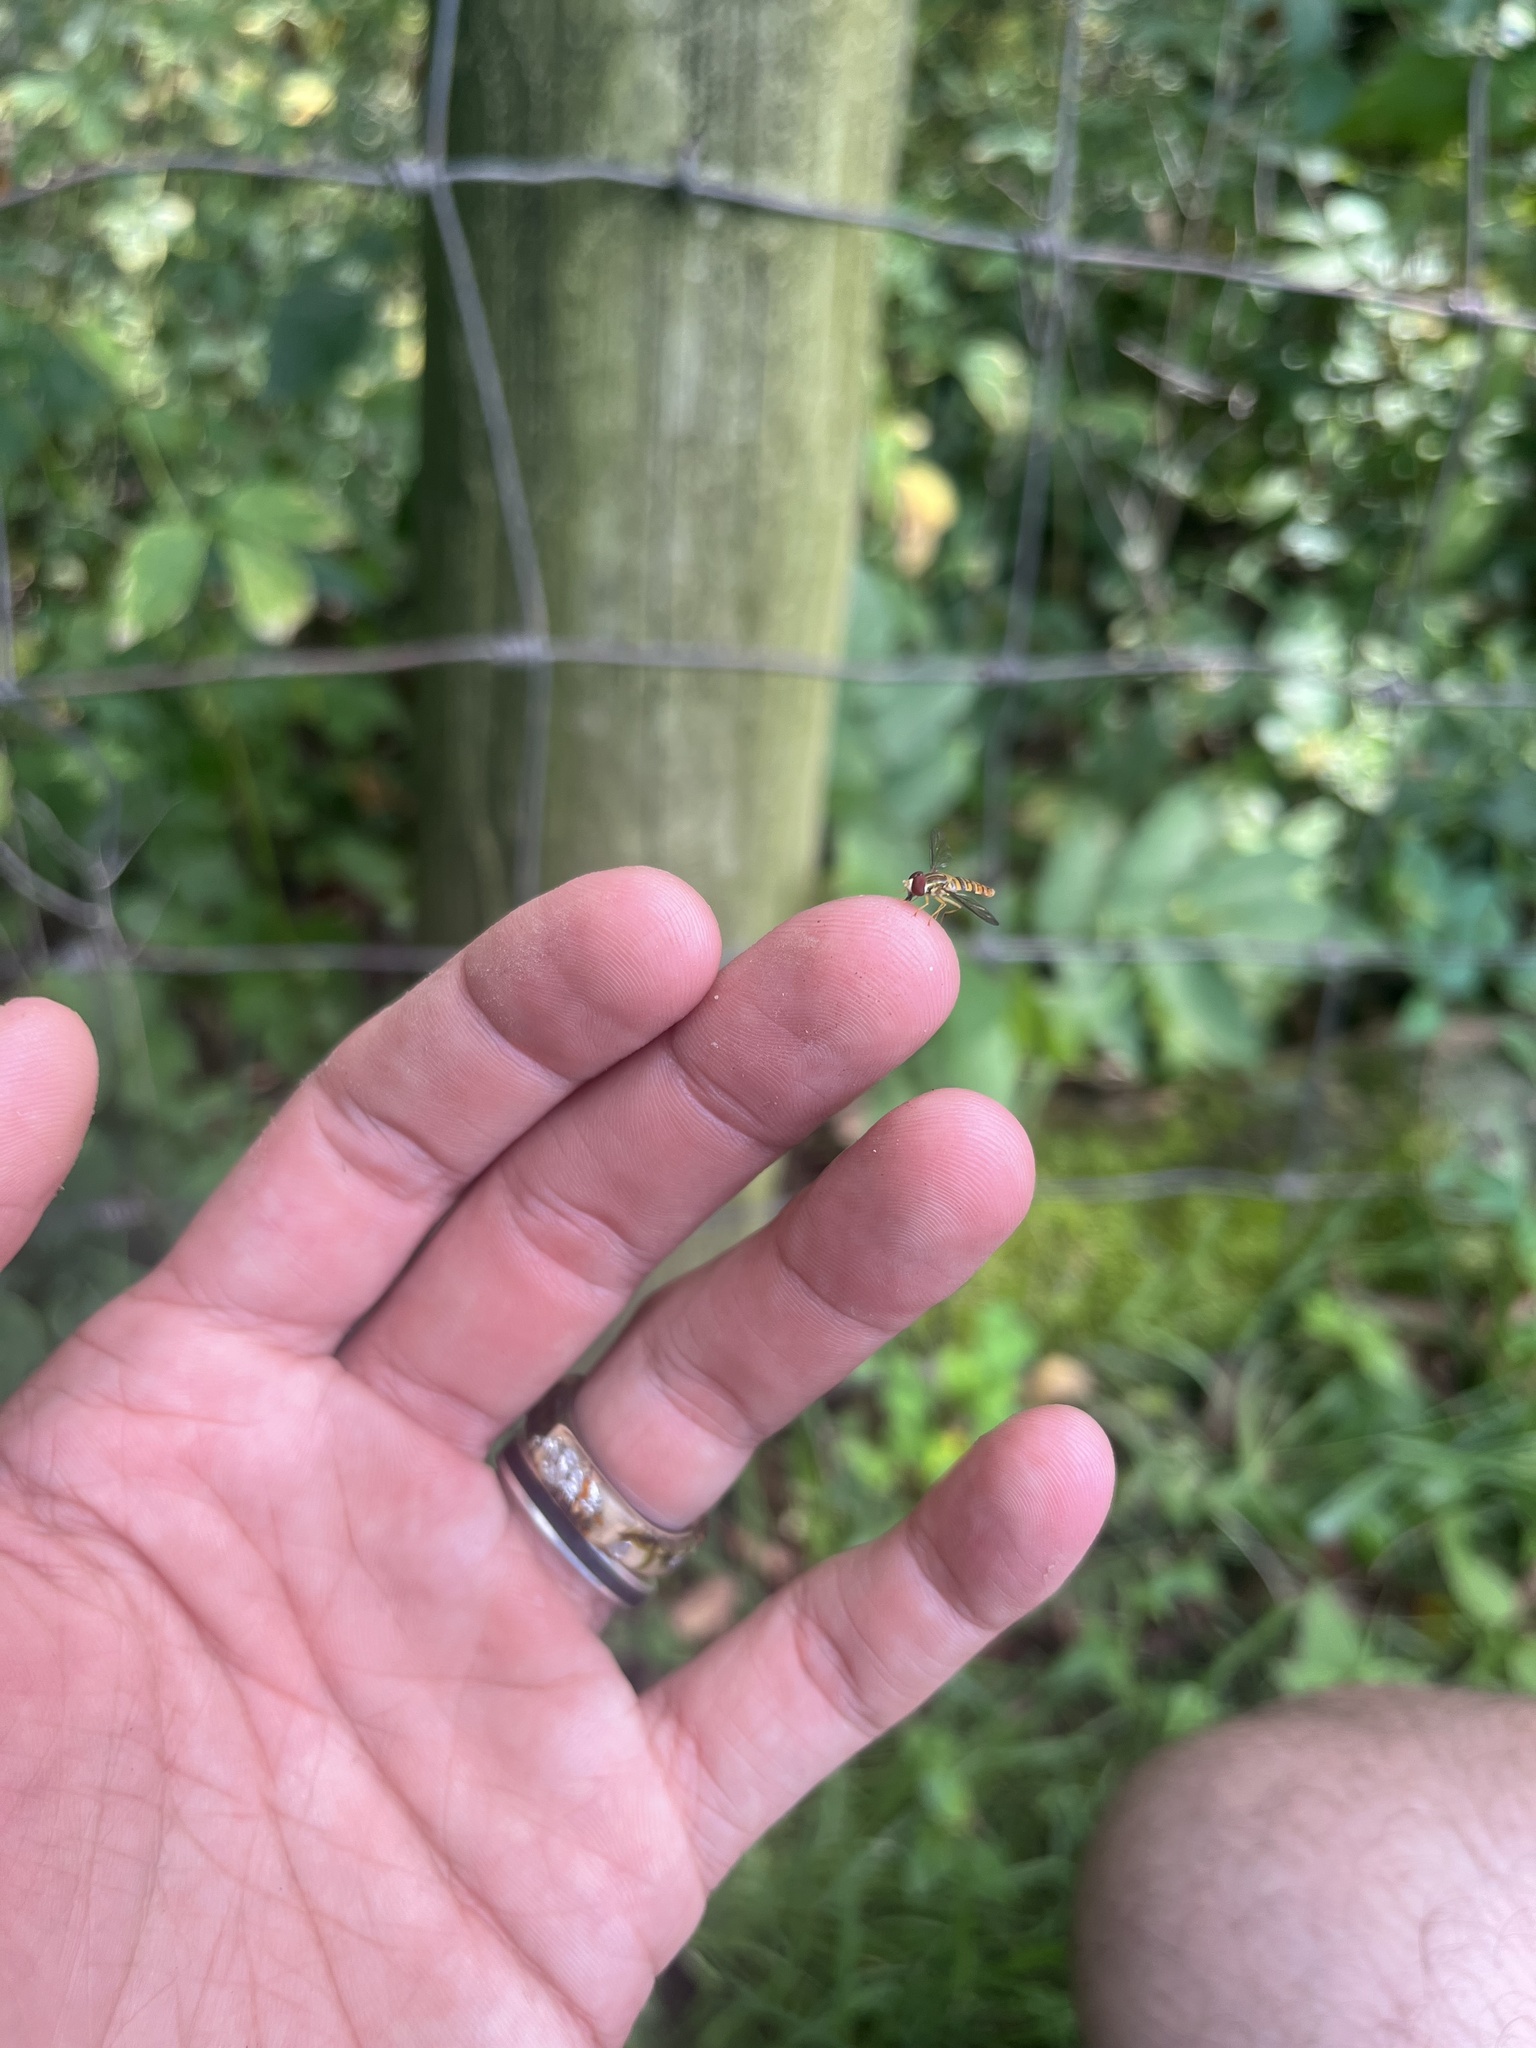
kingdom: Animalia
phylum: Arthropoda
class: Insecta
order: Diptera
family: Syrphidae
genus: Toxomerus
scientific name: Toxomerus politus
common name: Maize calligrapher
